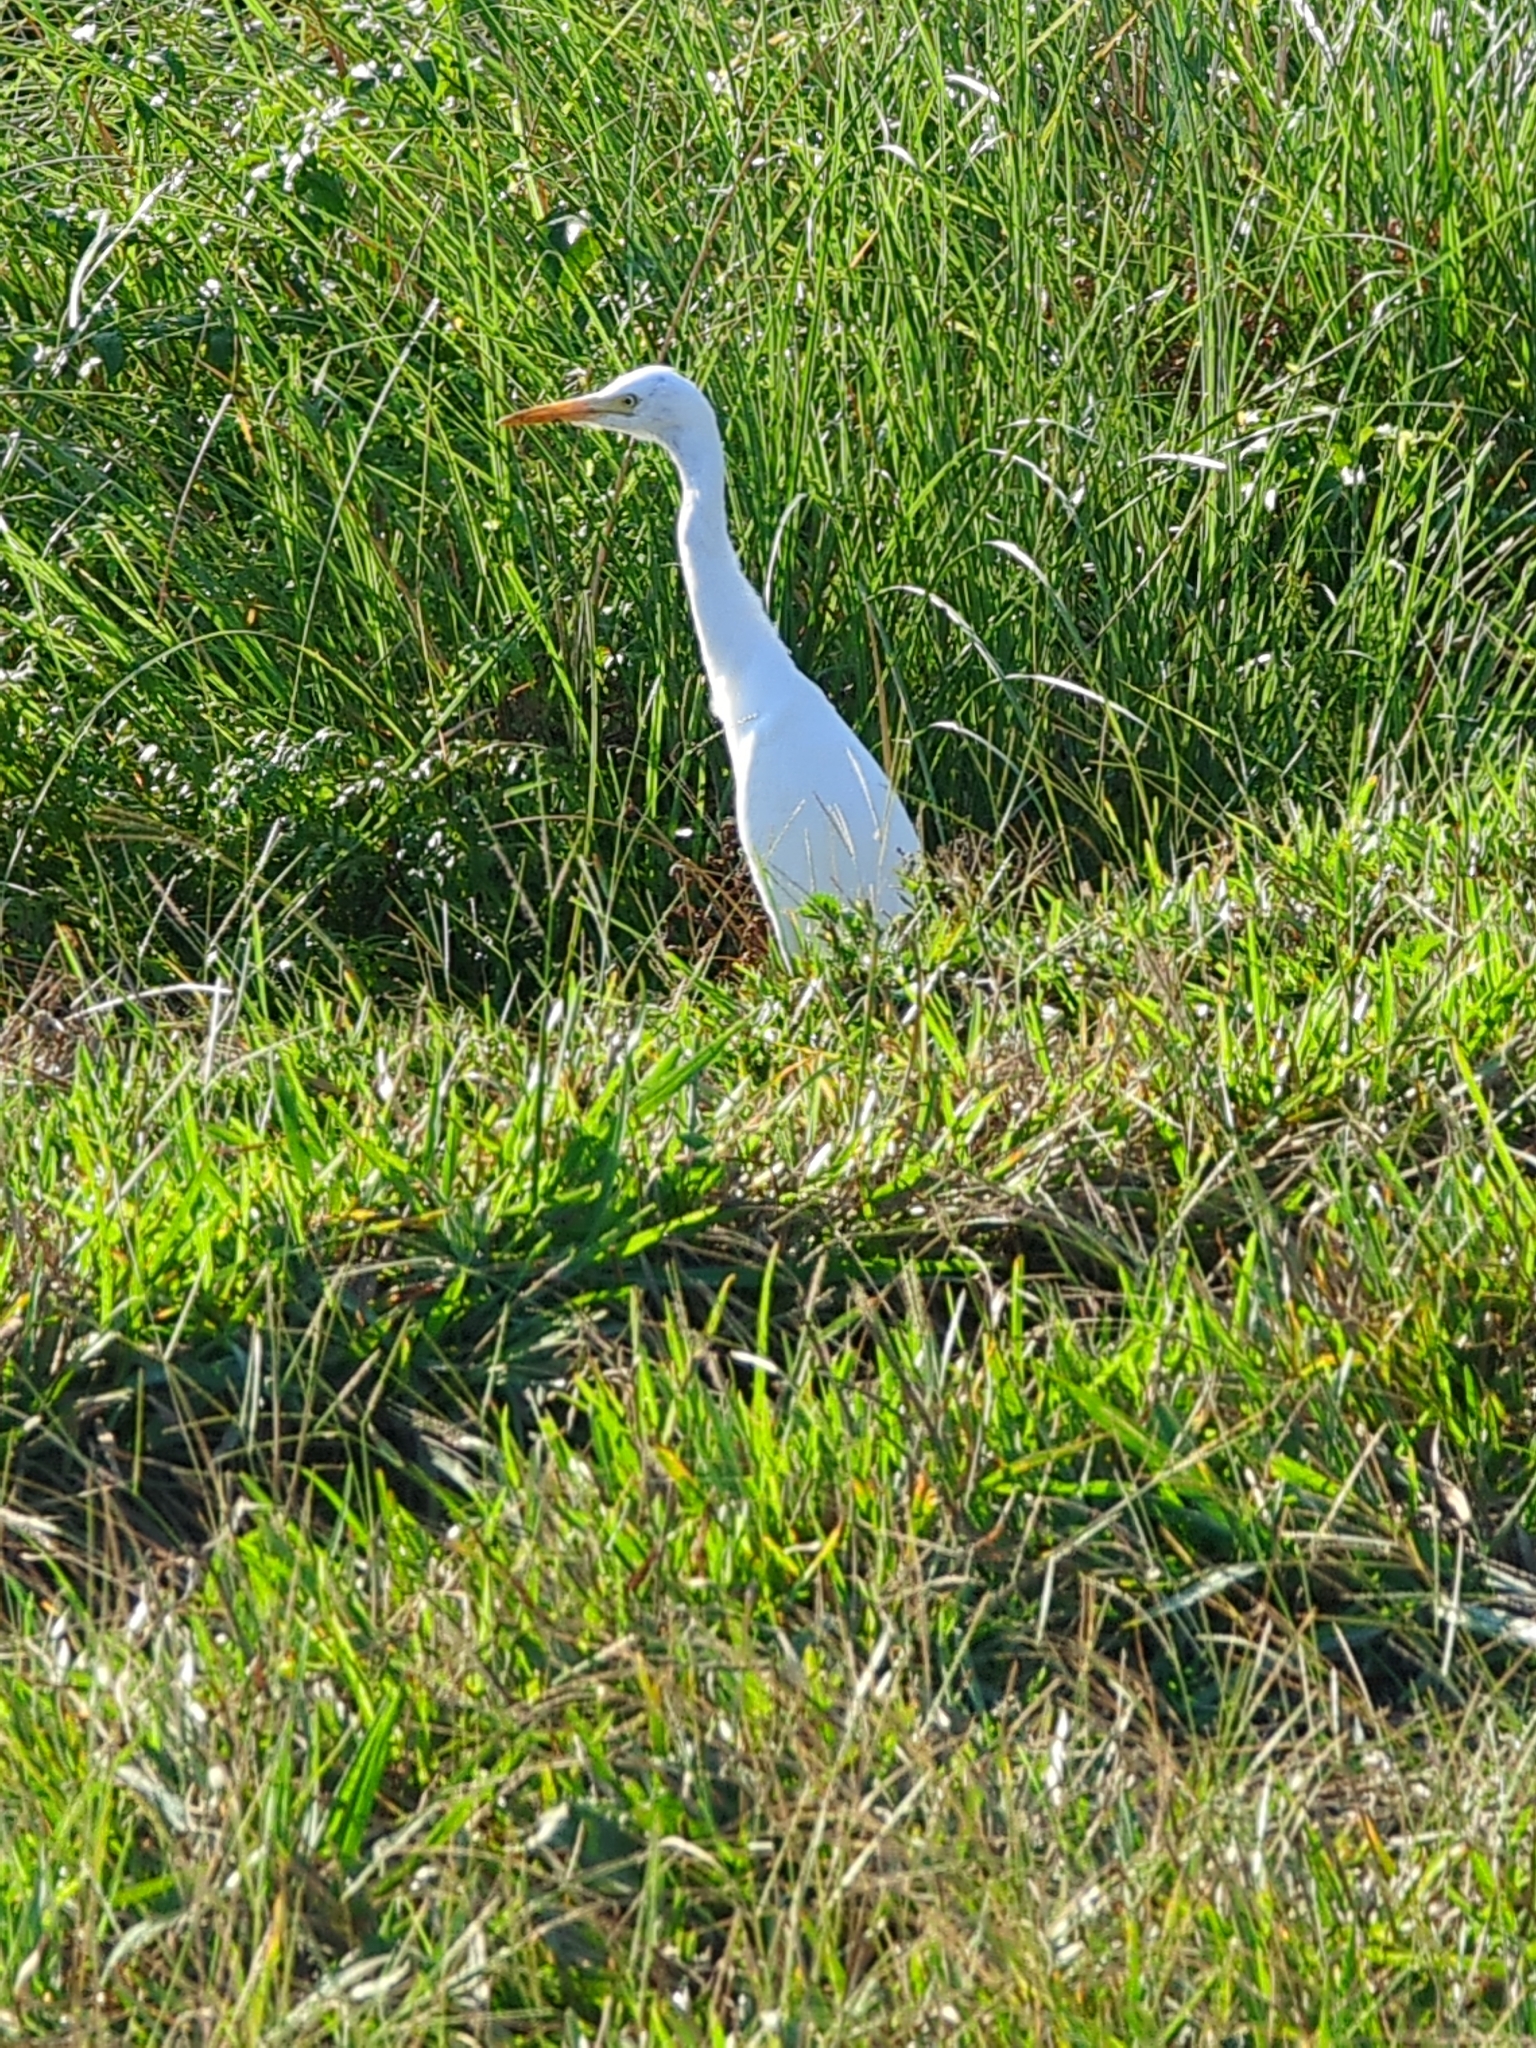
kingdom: Animalia
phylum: Chordata
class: Aves
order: Pelecaniformes
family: Ardeidae
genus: Bubulcus
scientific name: Bubulcus coromandus
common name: Eastern cattle egret
